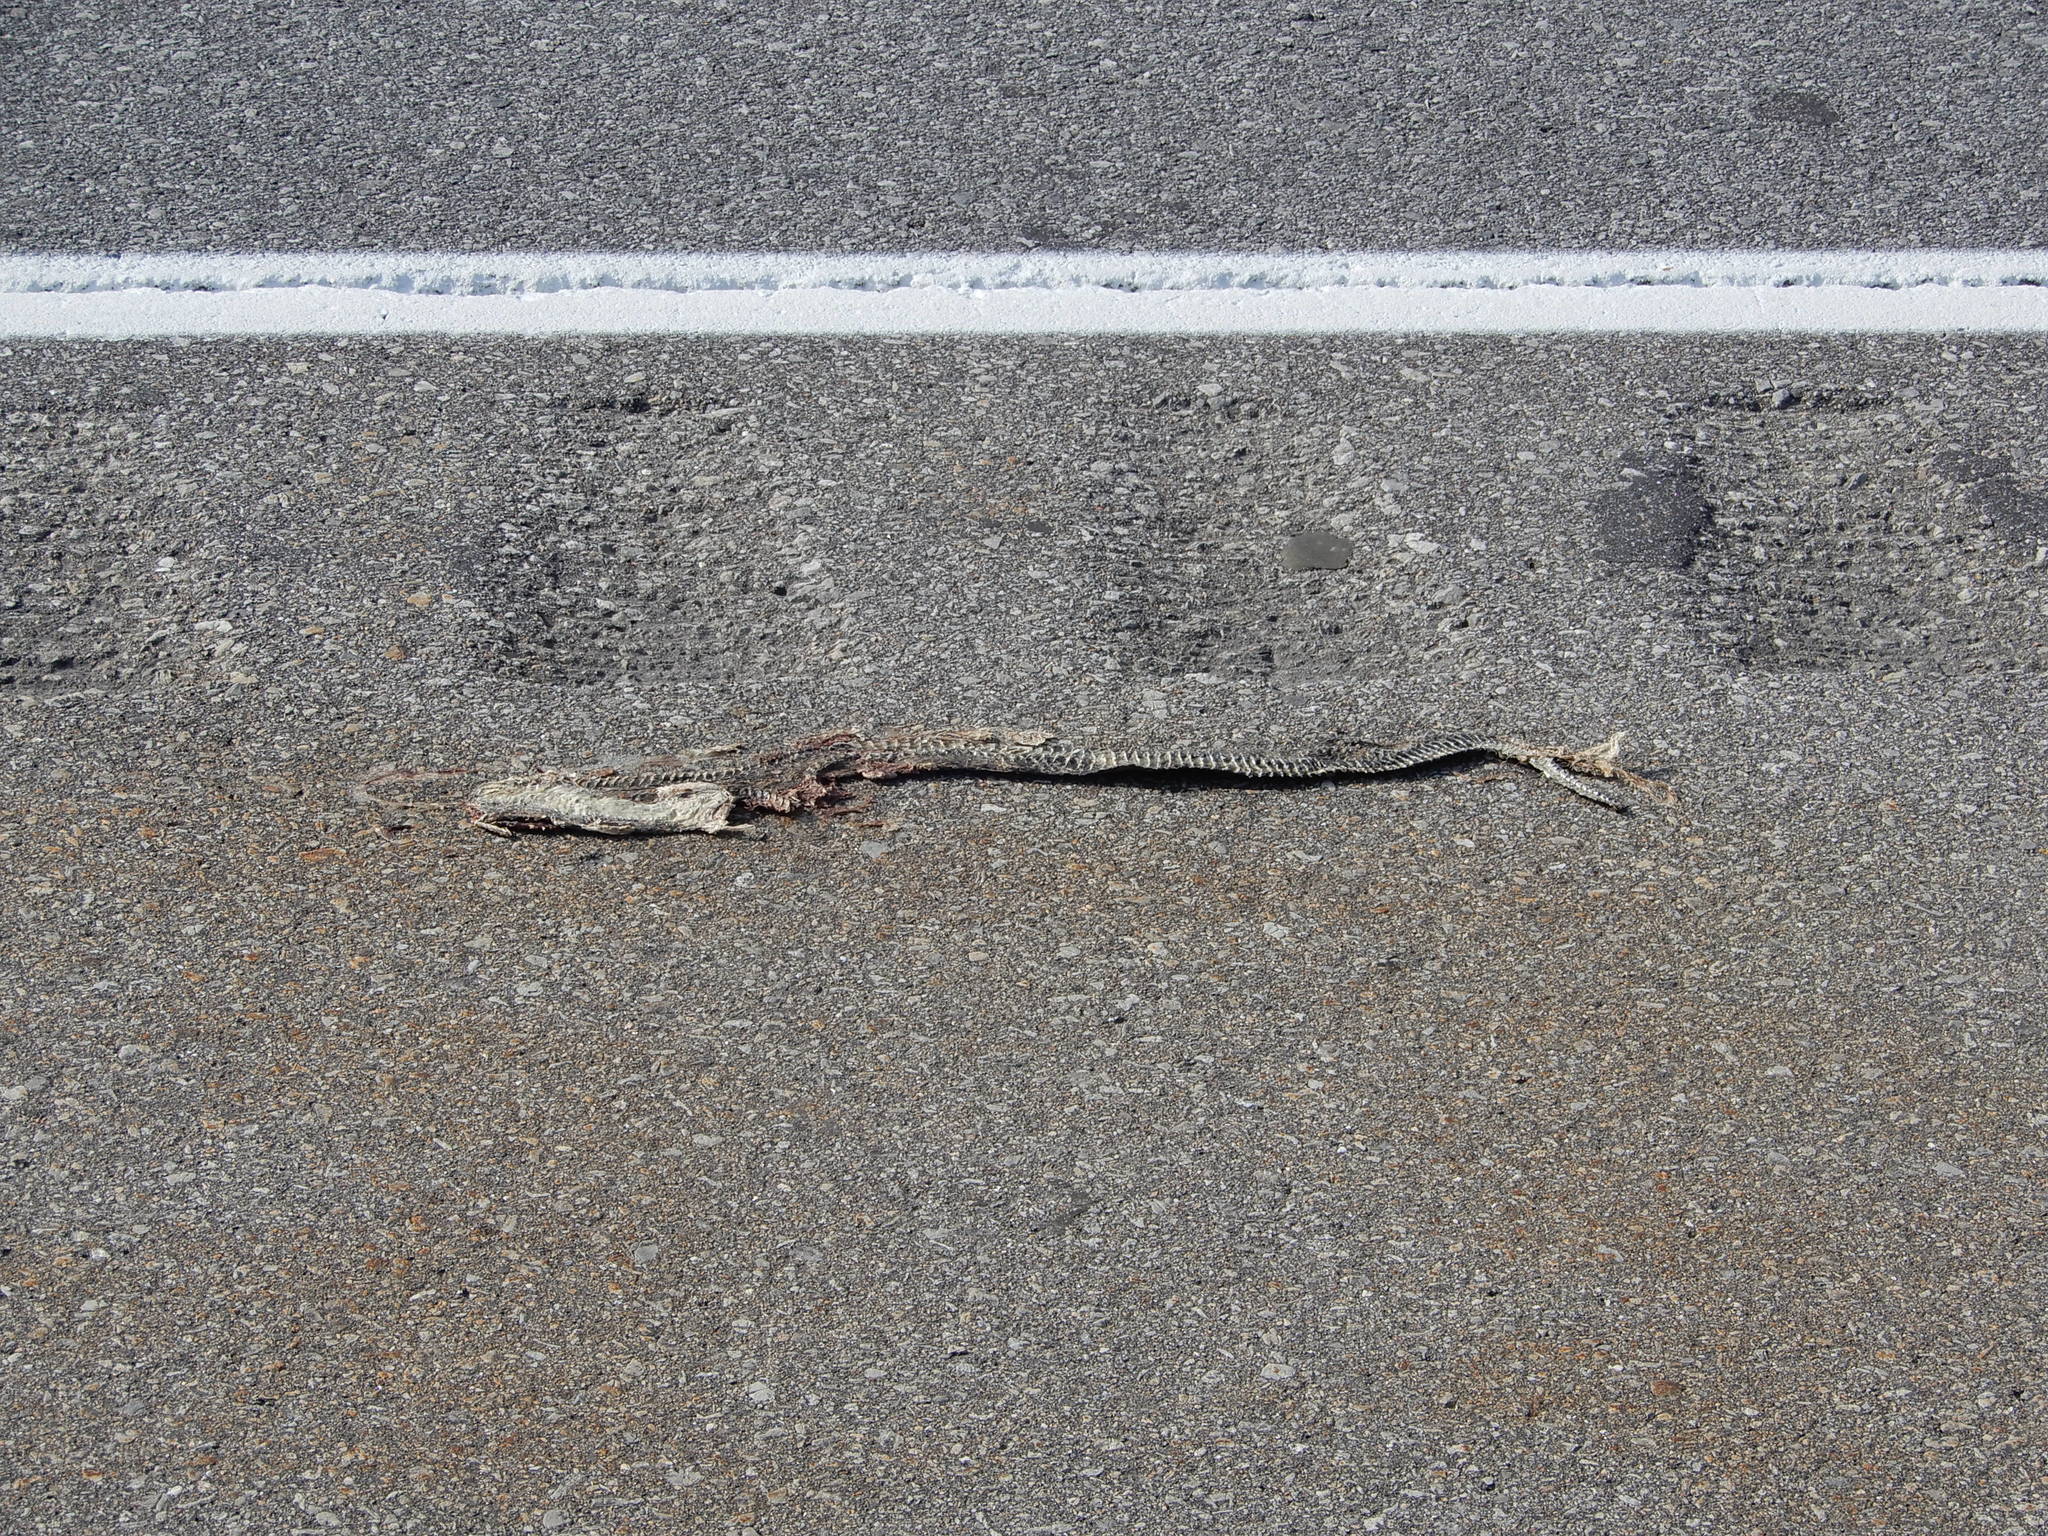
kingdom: Animalia
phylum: Chordata
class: Squamata
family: Colubridae
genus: Nerodia
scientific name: Nerodia sipedon
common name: Northern water snake
